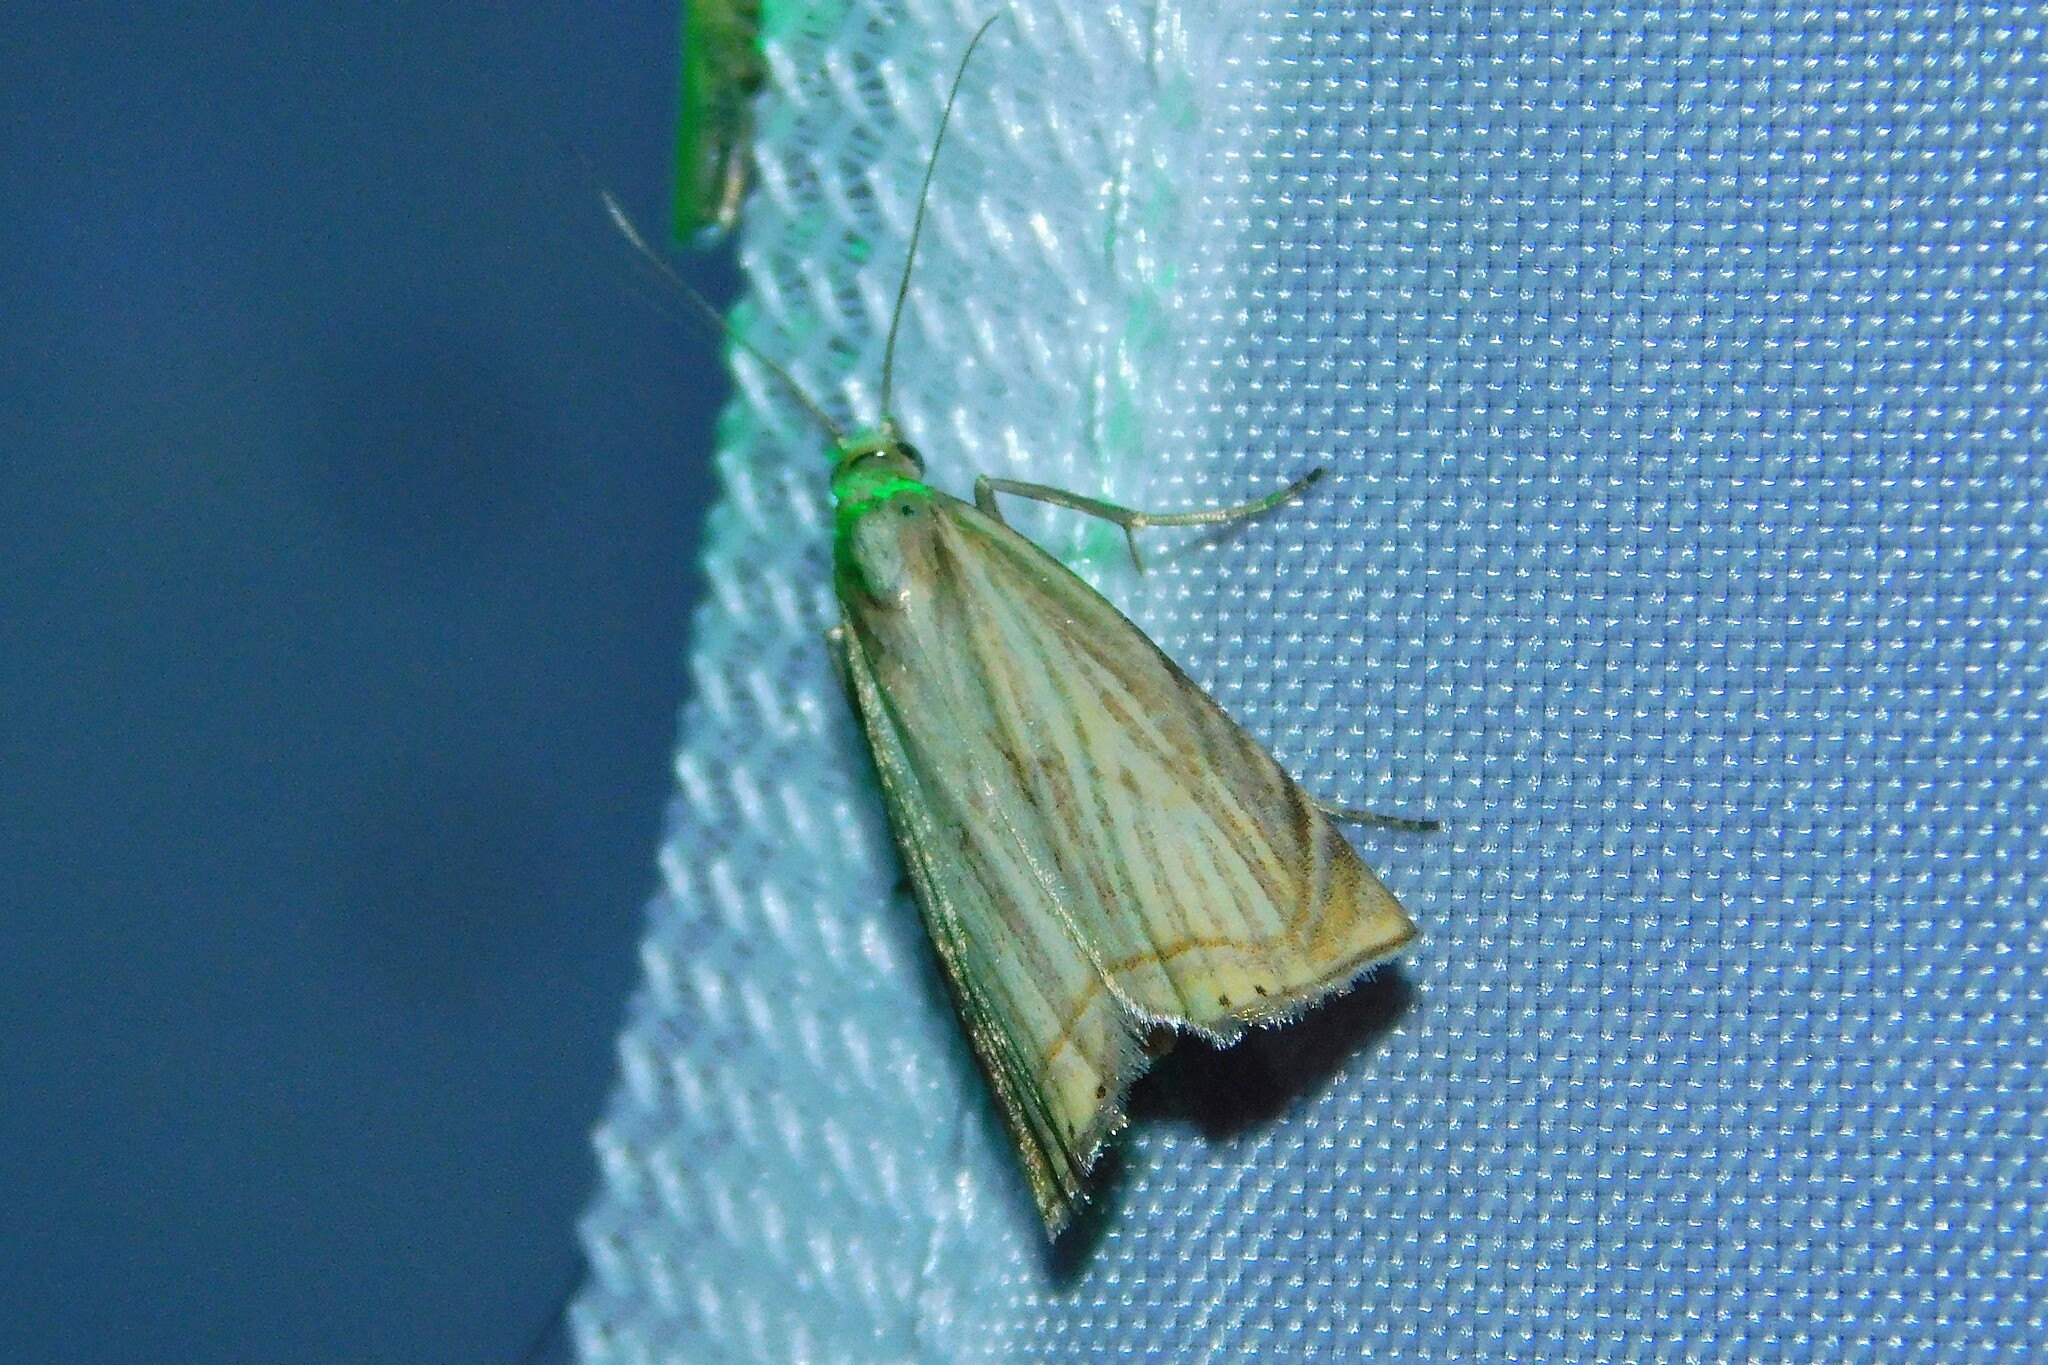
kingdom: Animalia
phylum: Arthropoda
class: Insecta
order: Lepidoptera
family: Crambidae
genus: Chrysoteuchia
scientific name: Chrysoteuchia culmella
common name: Garden grass-veneer
